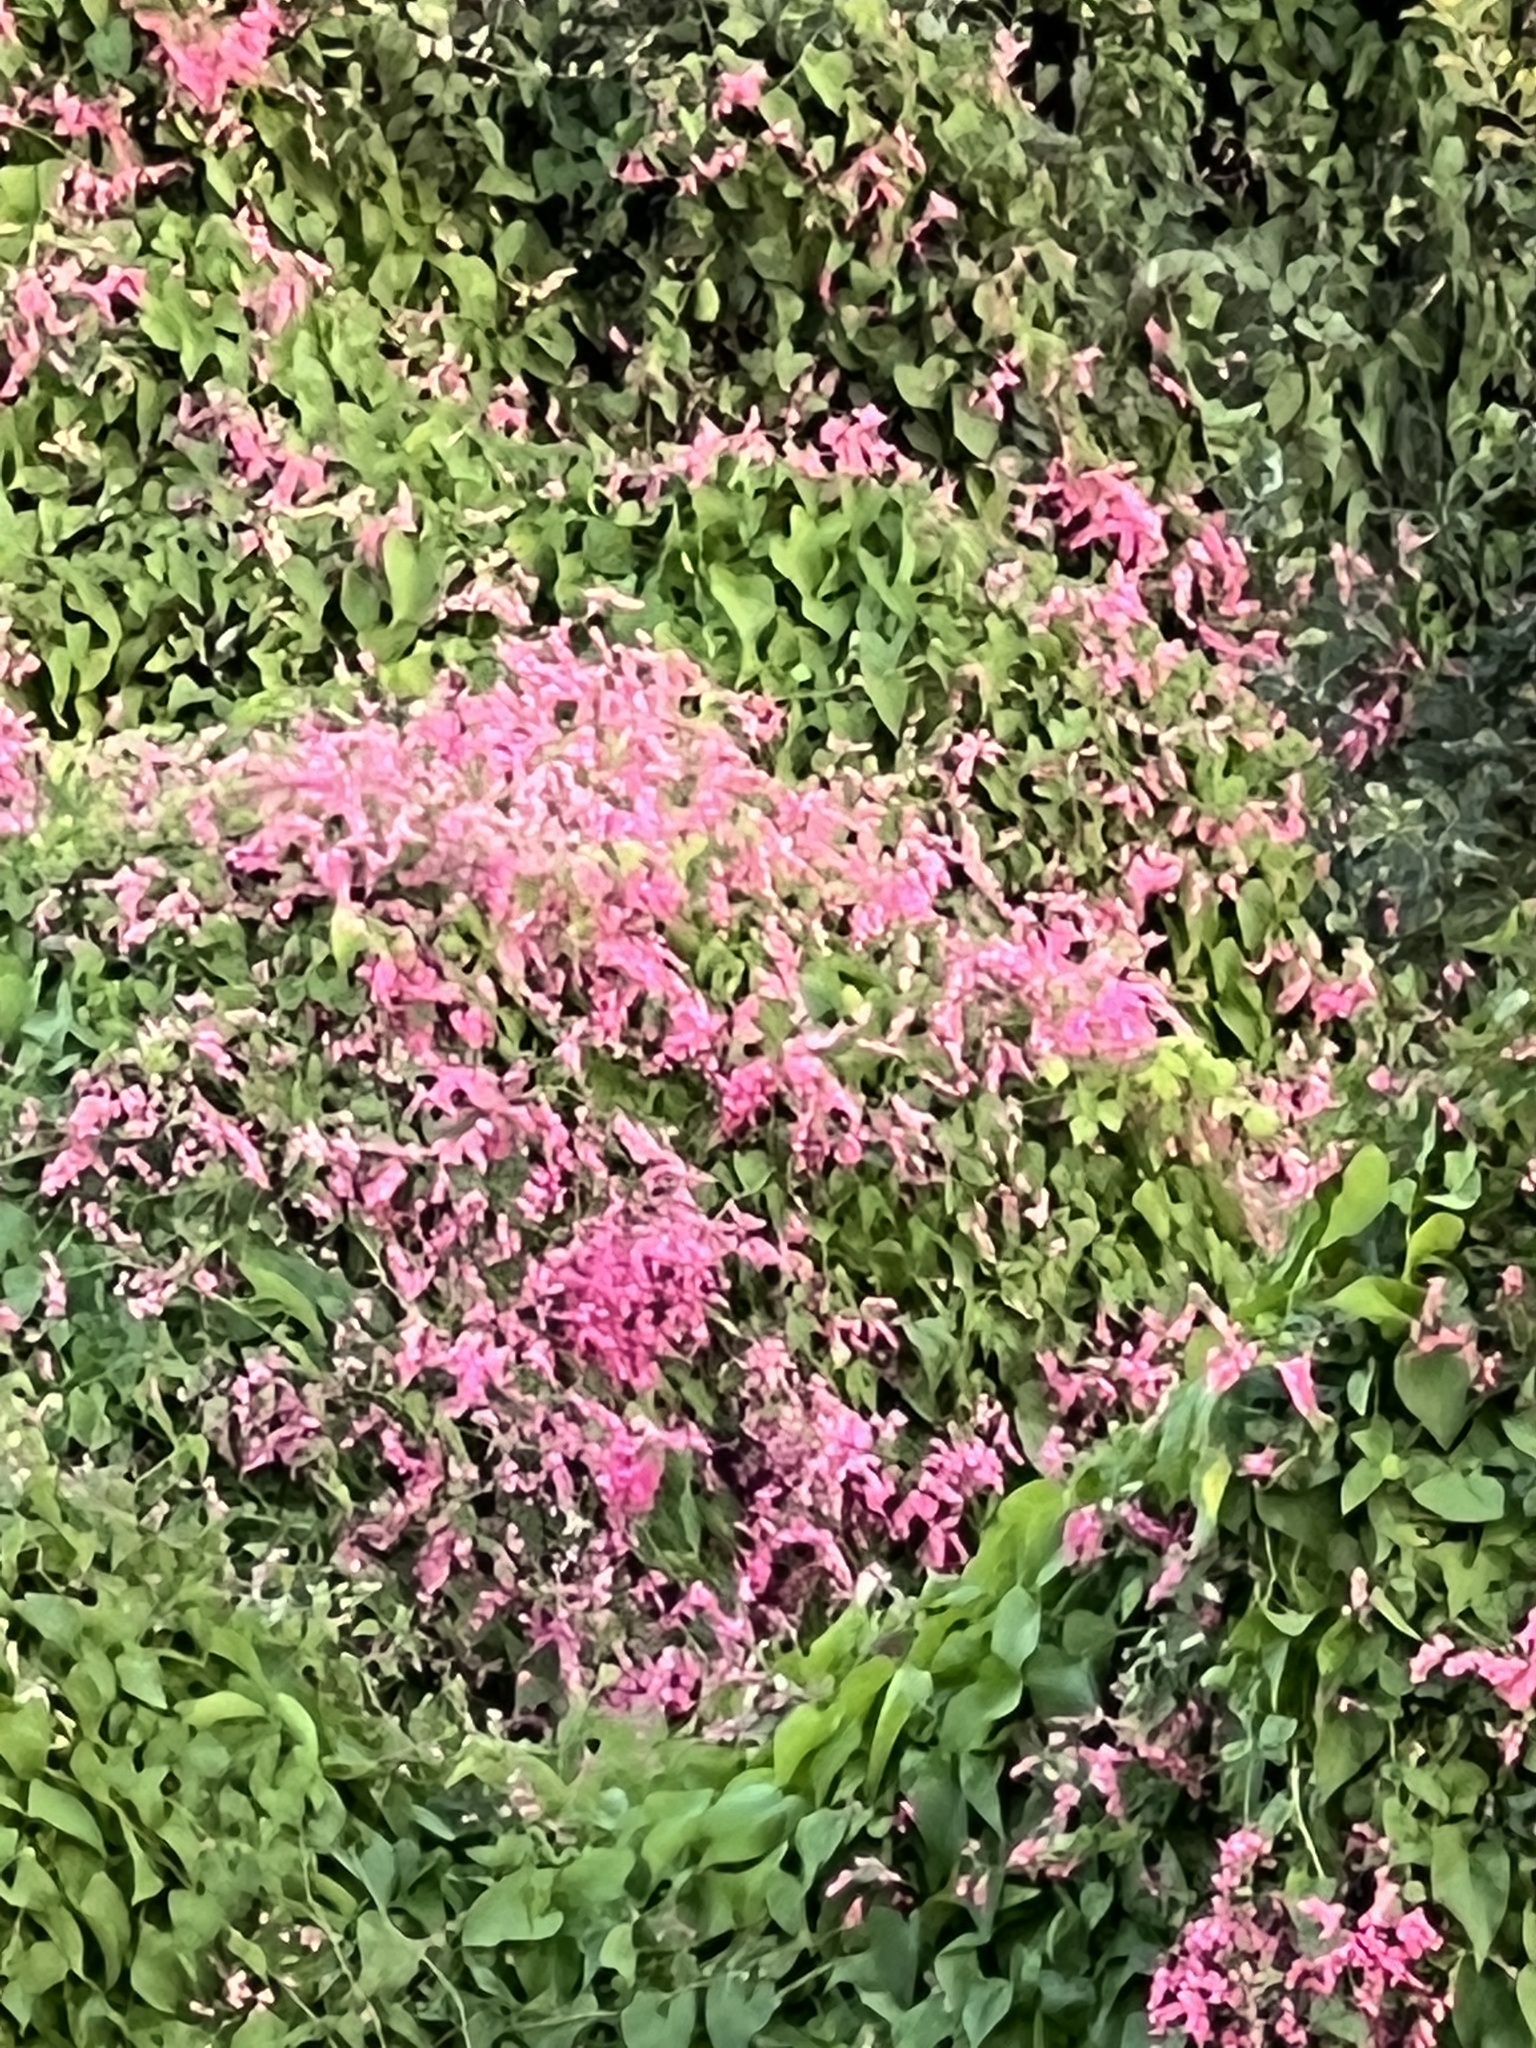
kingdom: Plantae
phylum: Tracheophyta
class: Magnoliopsida
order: Caryophyllales
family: Polygonaceae
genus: Antigonon
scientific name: Antigonon leptopus
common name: Coral vine
